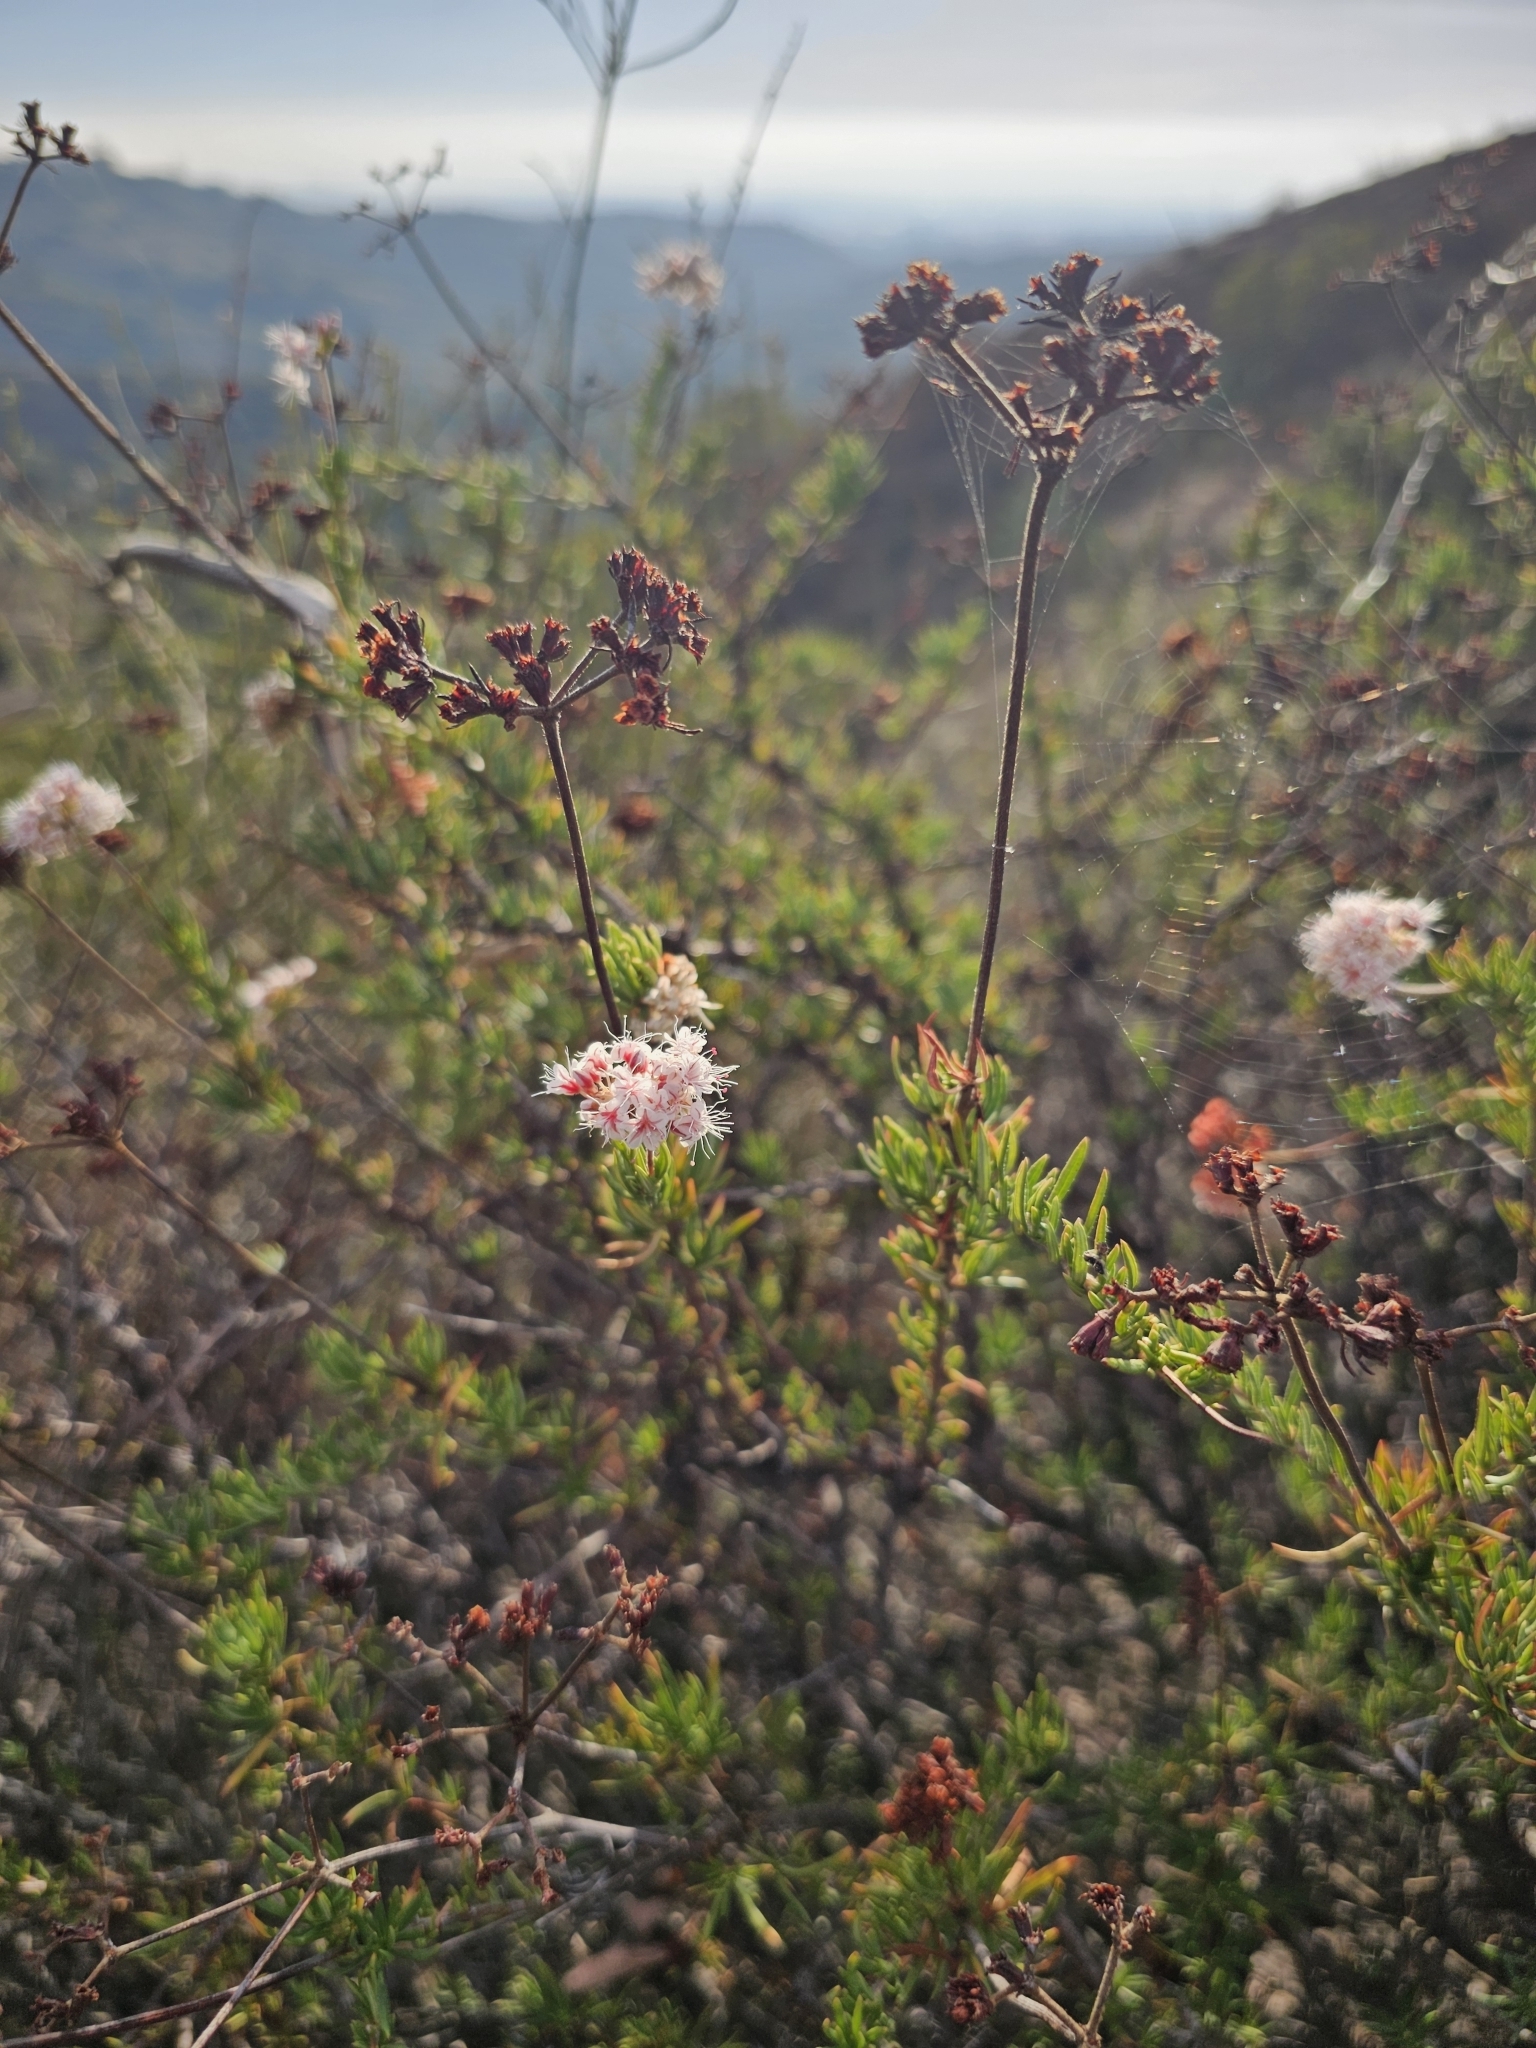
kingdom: Plantae
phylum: Tracheophyta
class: Magnoliopsida
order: Caryophyllales
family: Polygonaceae
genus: Eriogonum
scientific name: Eriogonum fasciculatum
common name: California wild buckwheat
